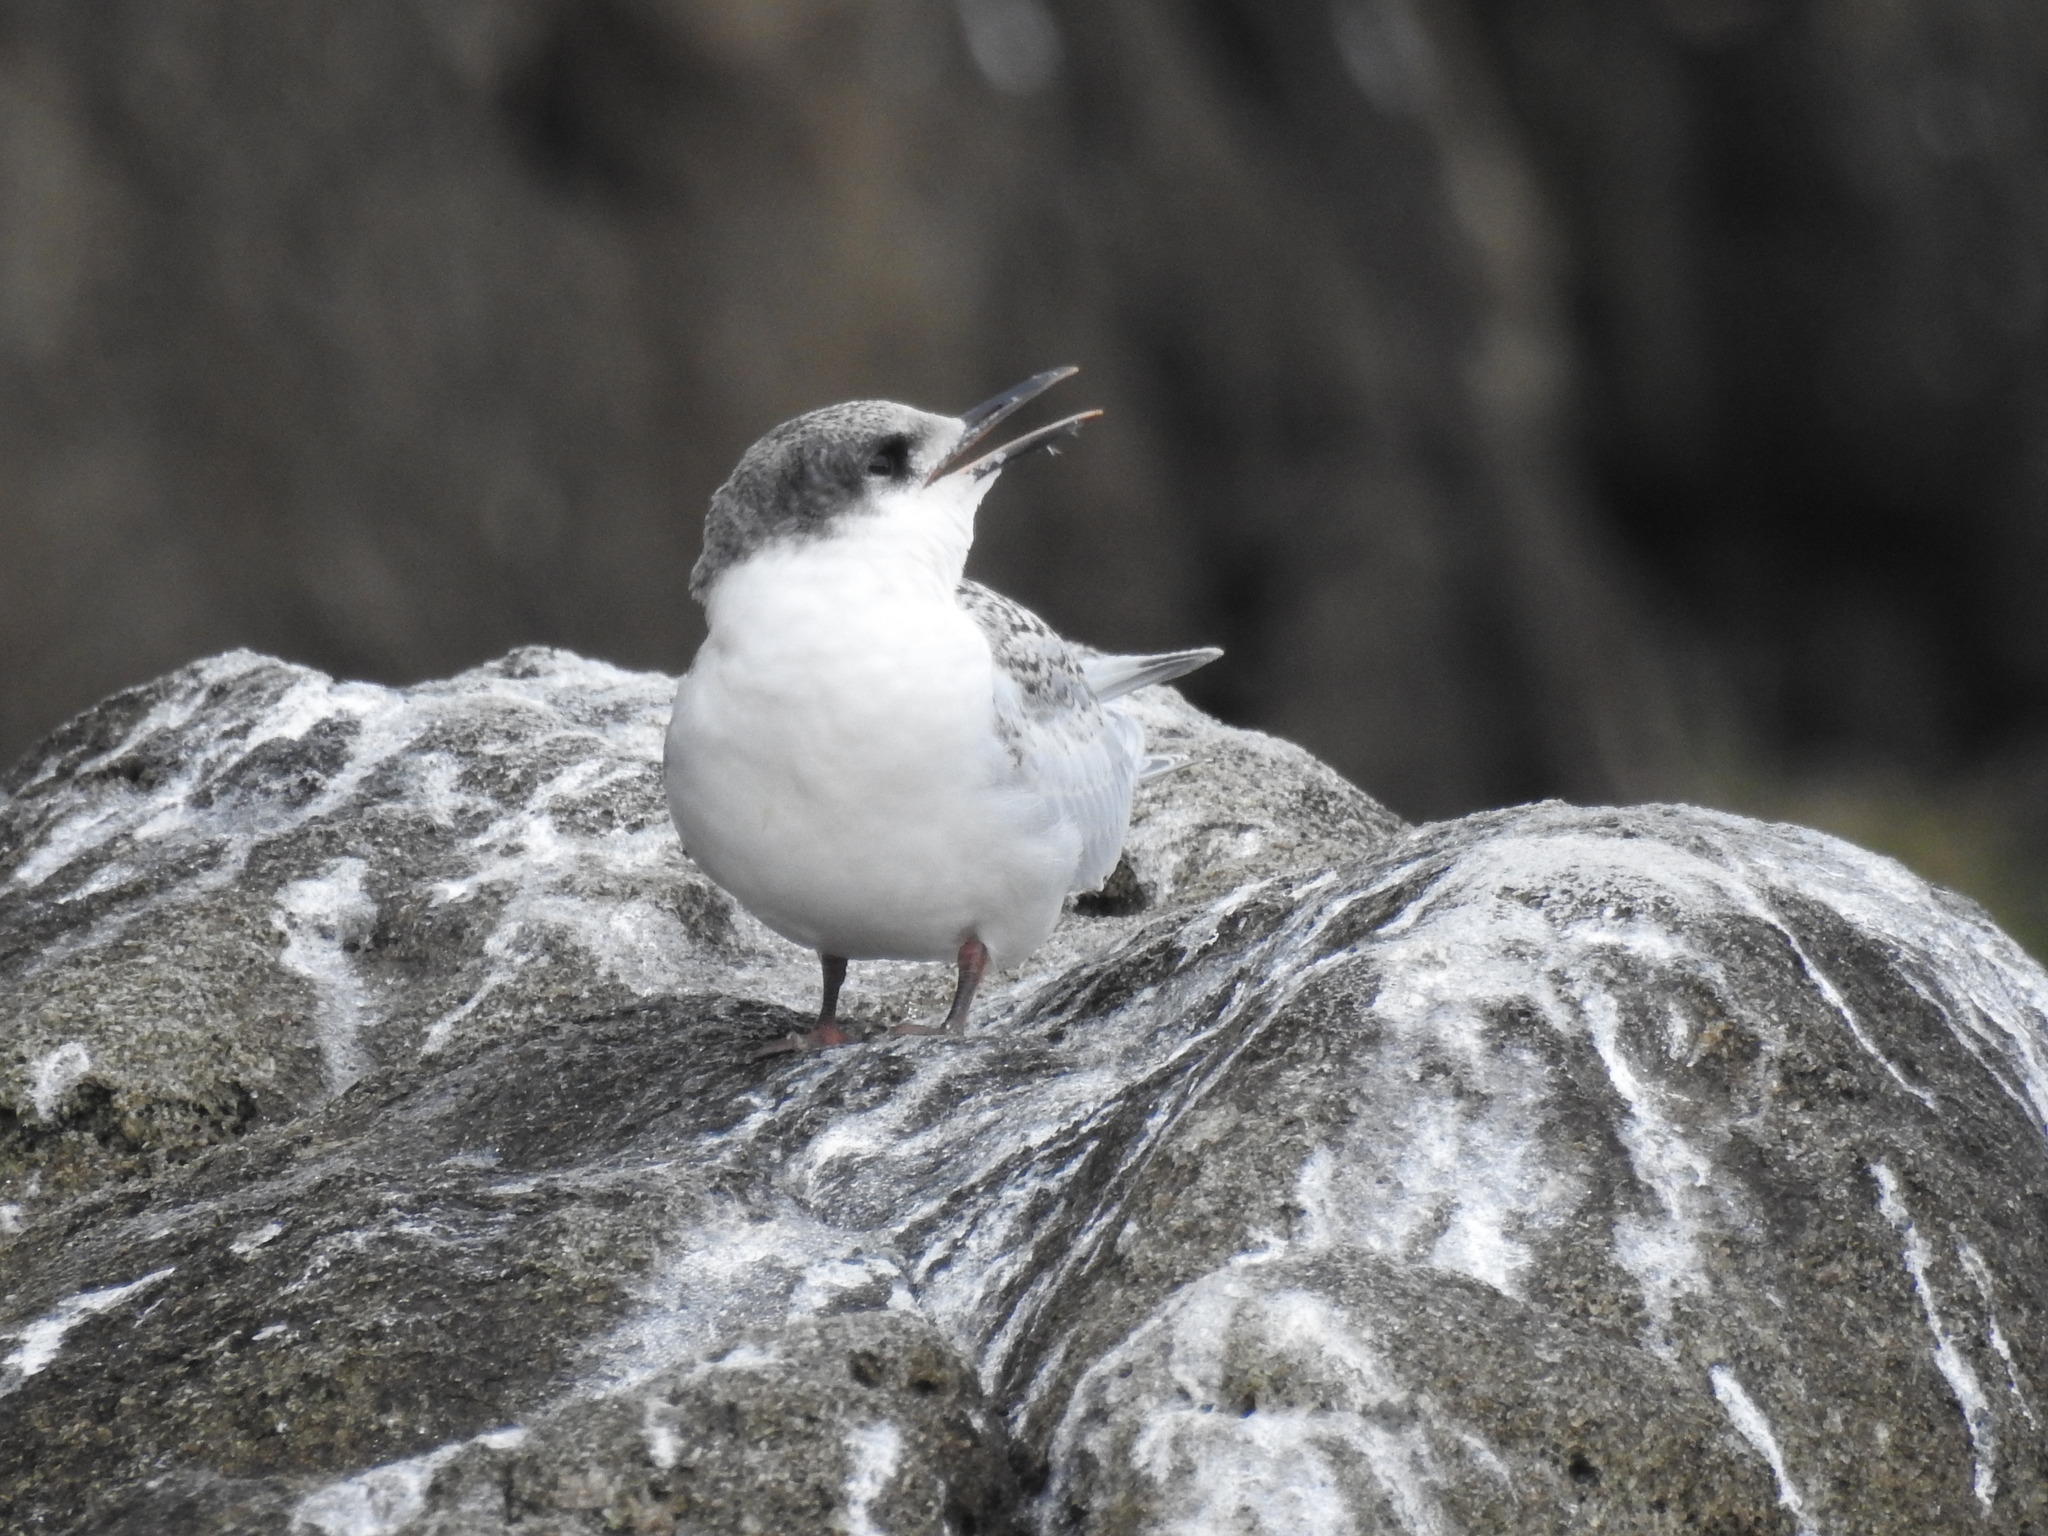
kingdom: Animalia
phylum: Chordata
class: Aves
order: Charadriiformes
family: Laridae
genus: Sterna
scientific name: Sterna striata
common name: White-fronted tern
